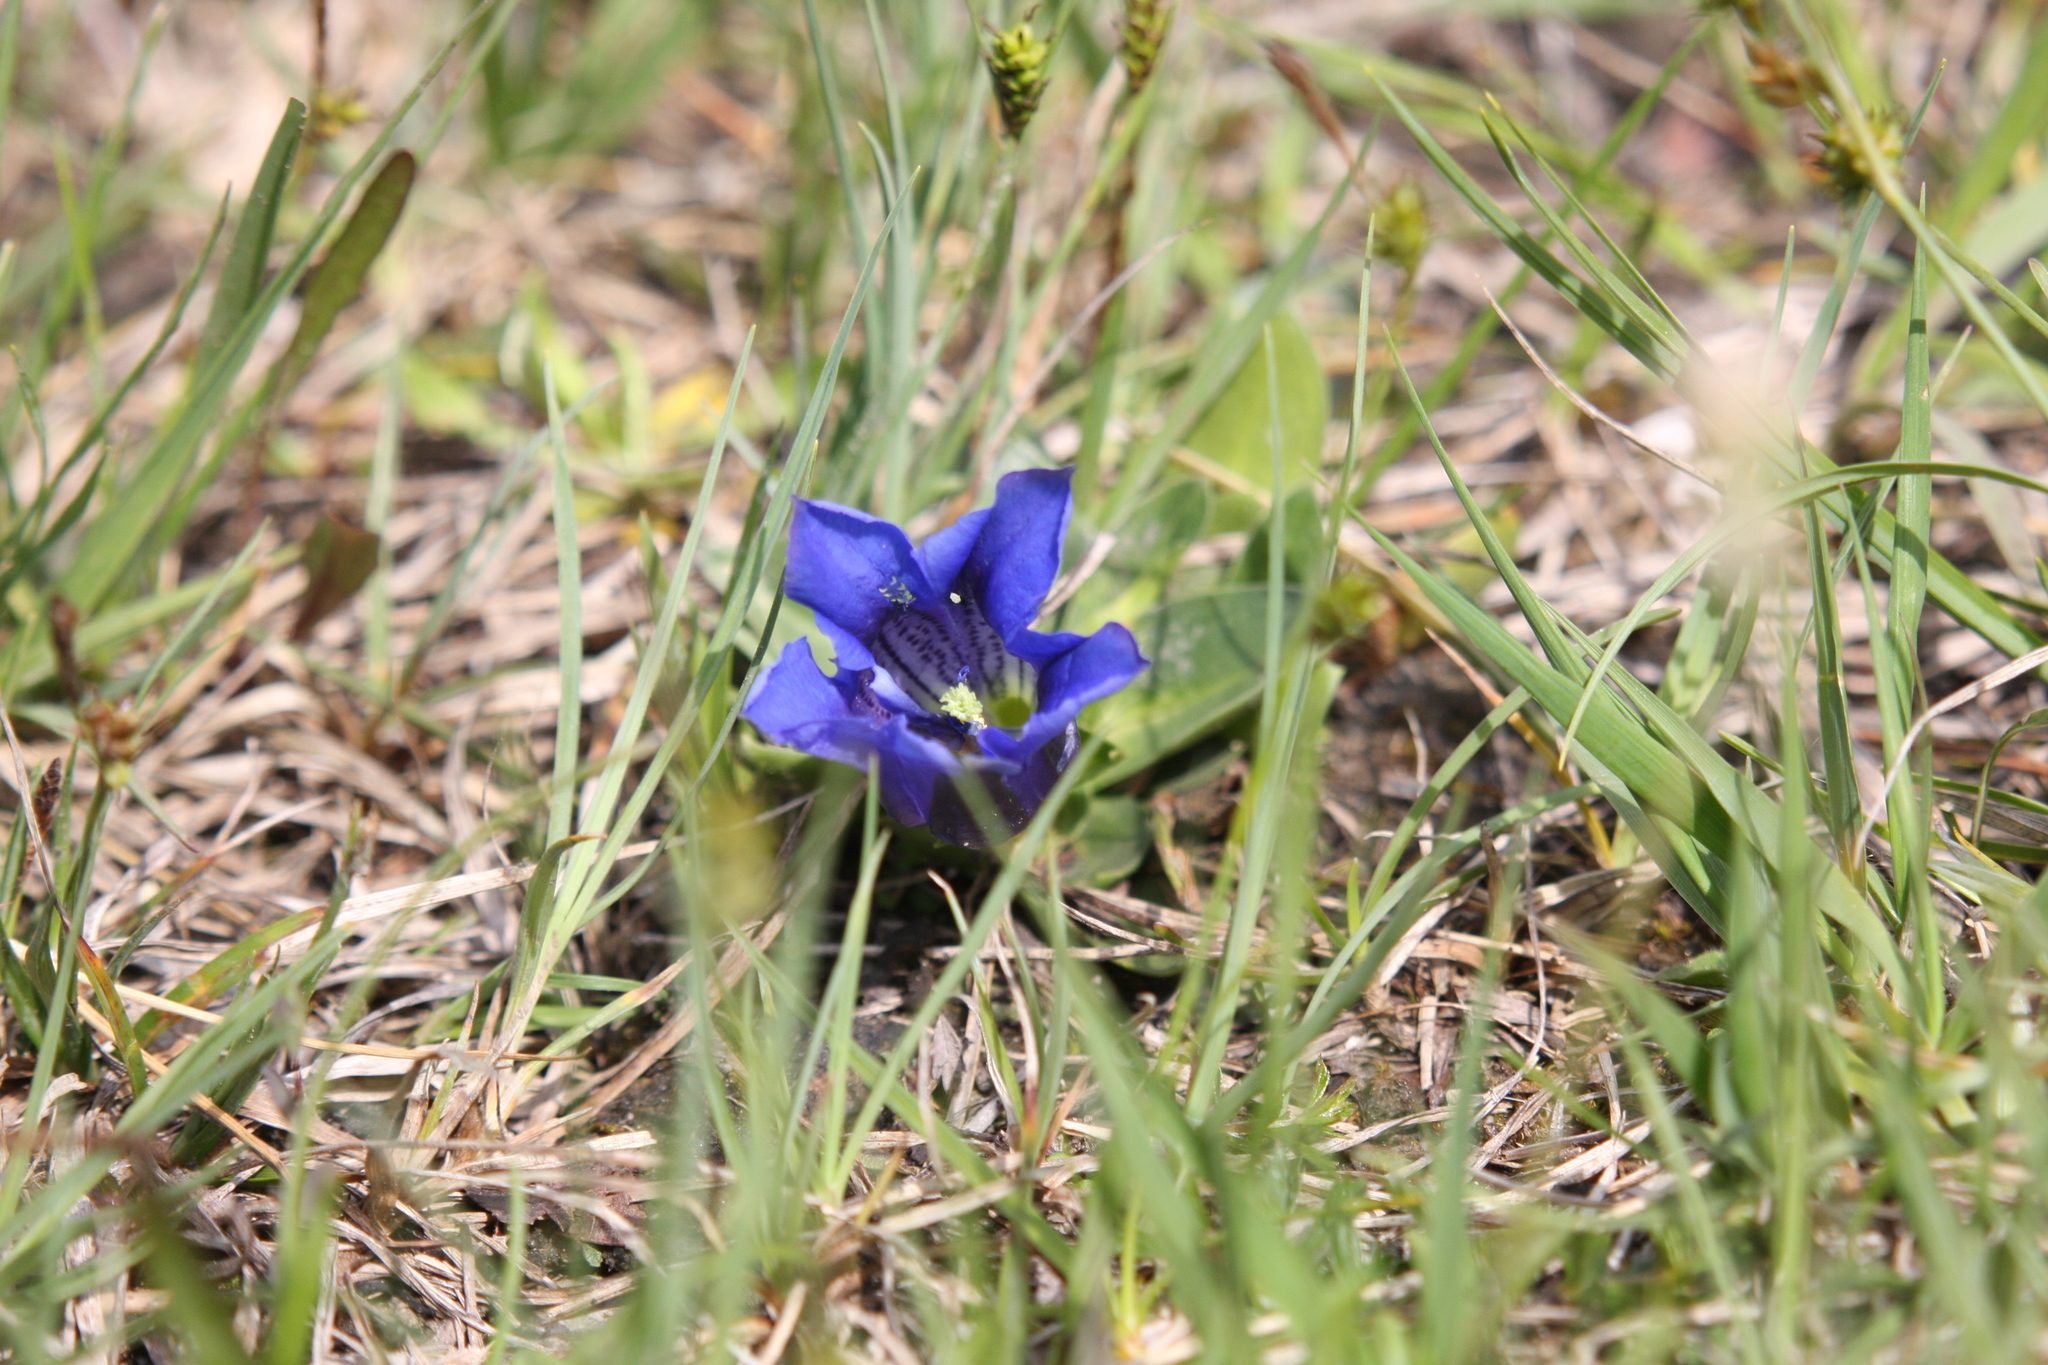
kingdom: Plantae
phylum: Tracheophyta
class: Magnoliopsida
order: Gentianales
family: Gentianaceae
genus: Gentiana
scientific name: Gentiana acaulis
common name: Trumpet gentian
